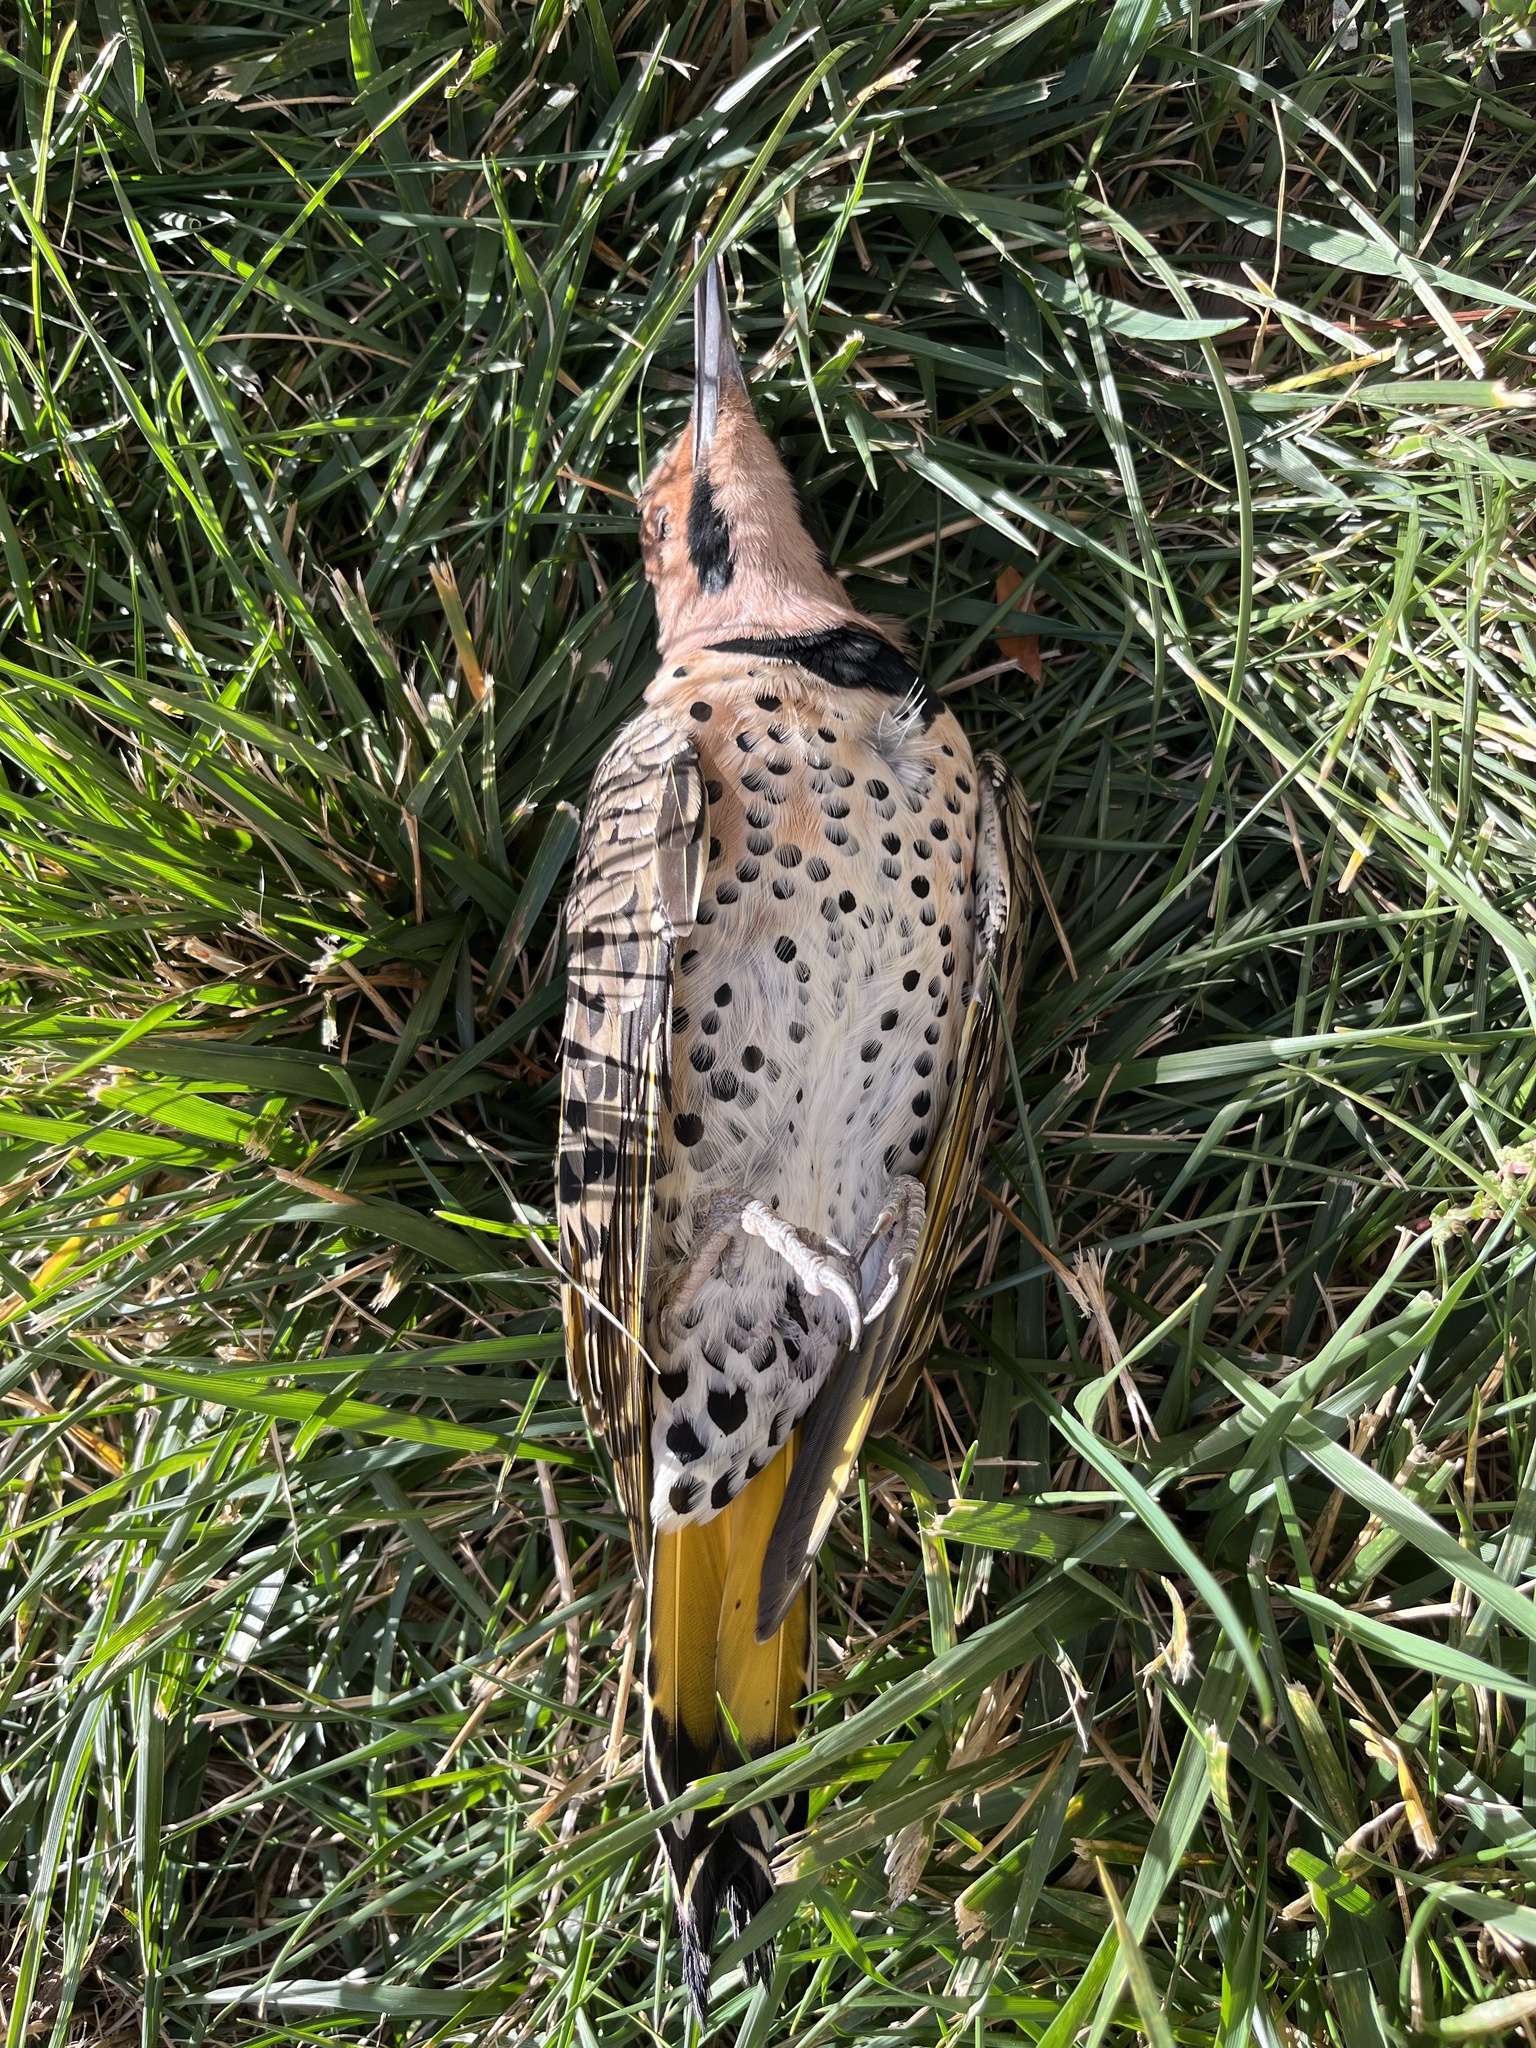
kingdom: Animalia
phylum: Chordata
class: Aves
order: Piciformes
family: Picidae
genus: Colaptes
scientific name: Colaptes auratus
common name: Northern flicker
